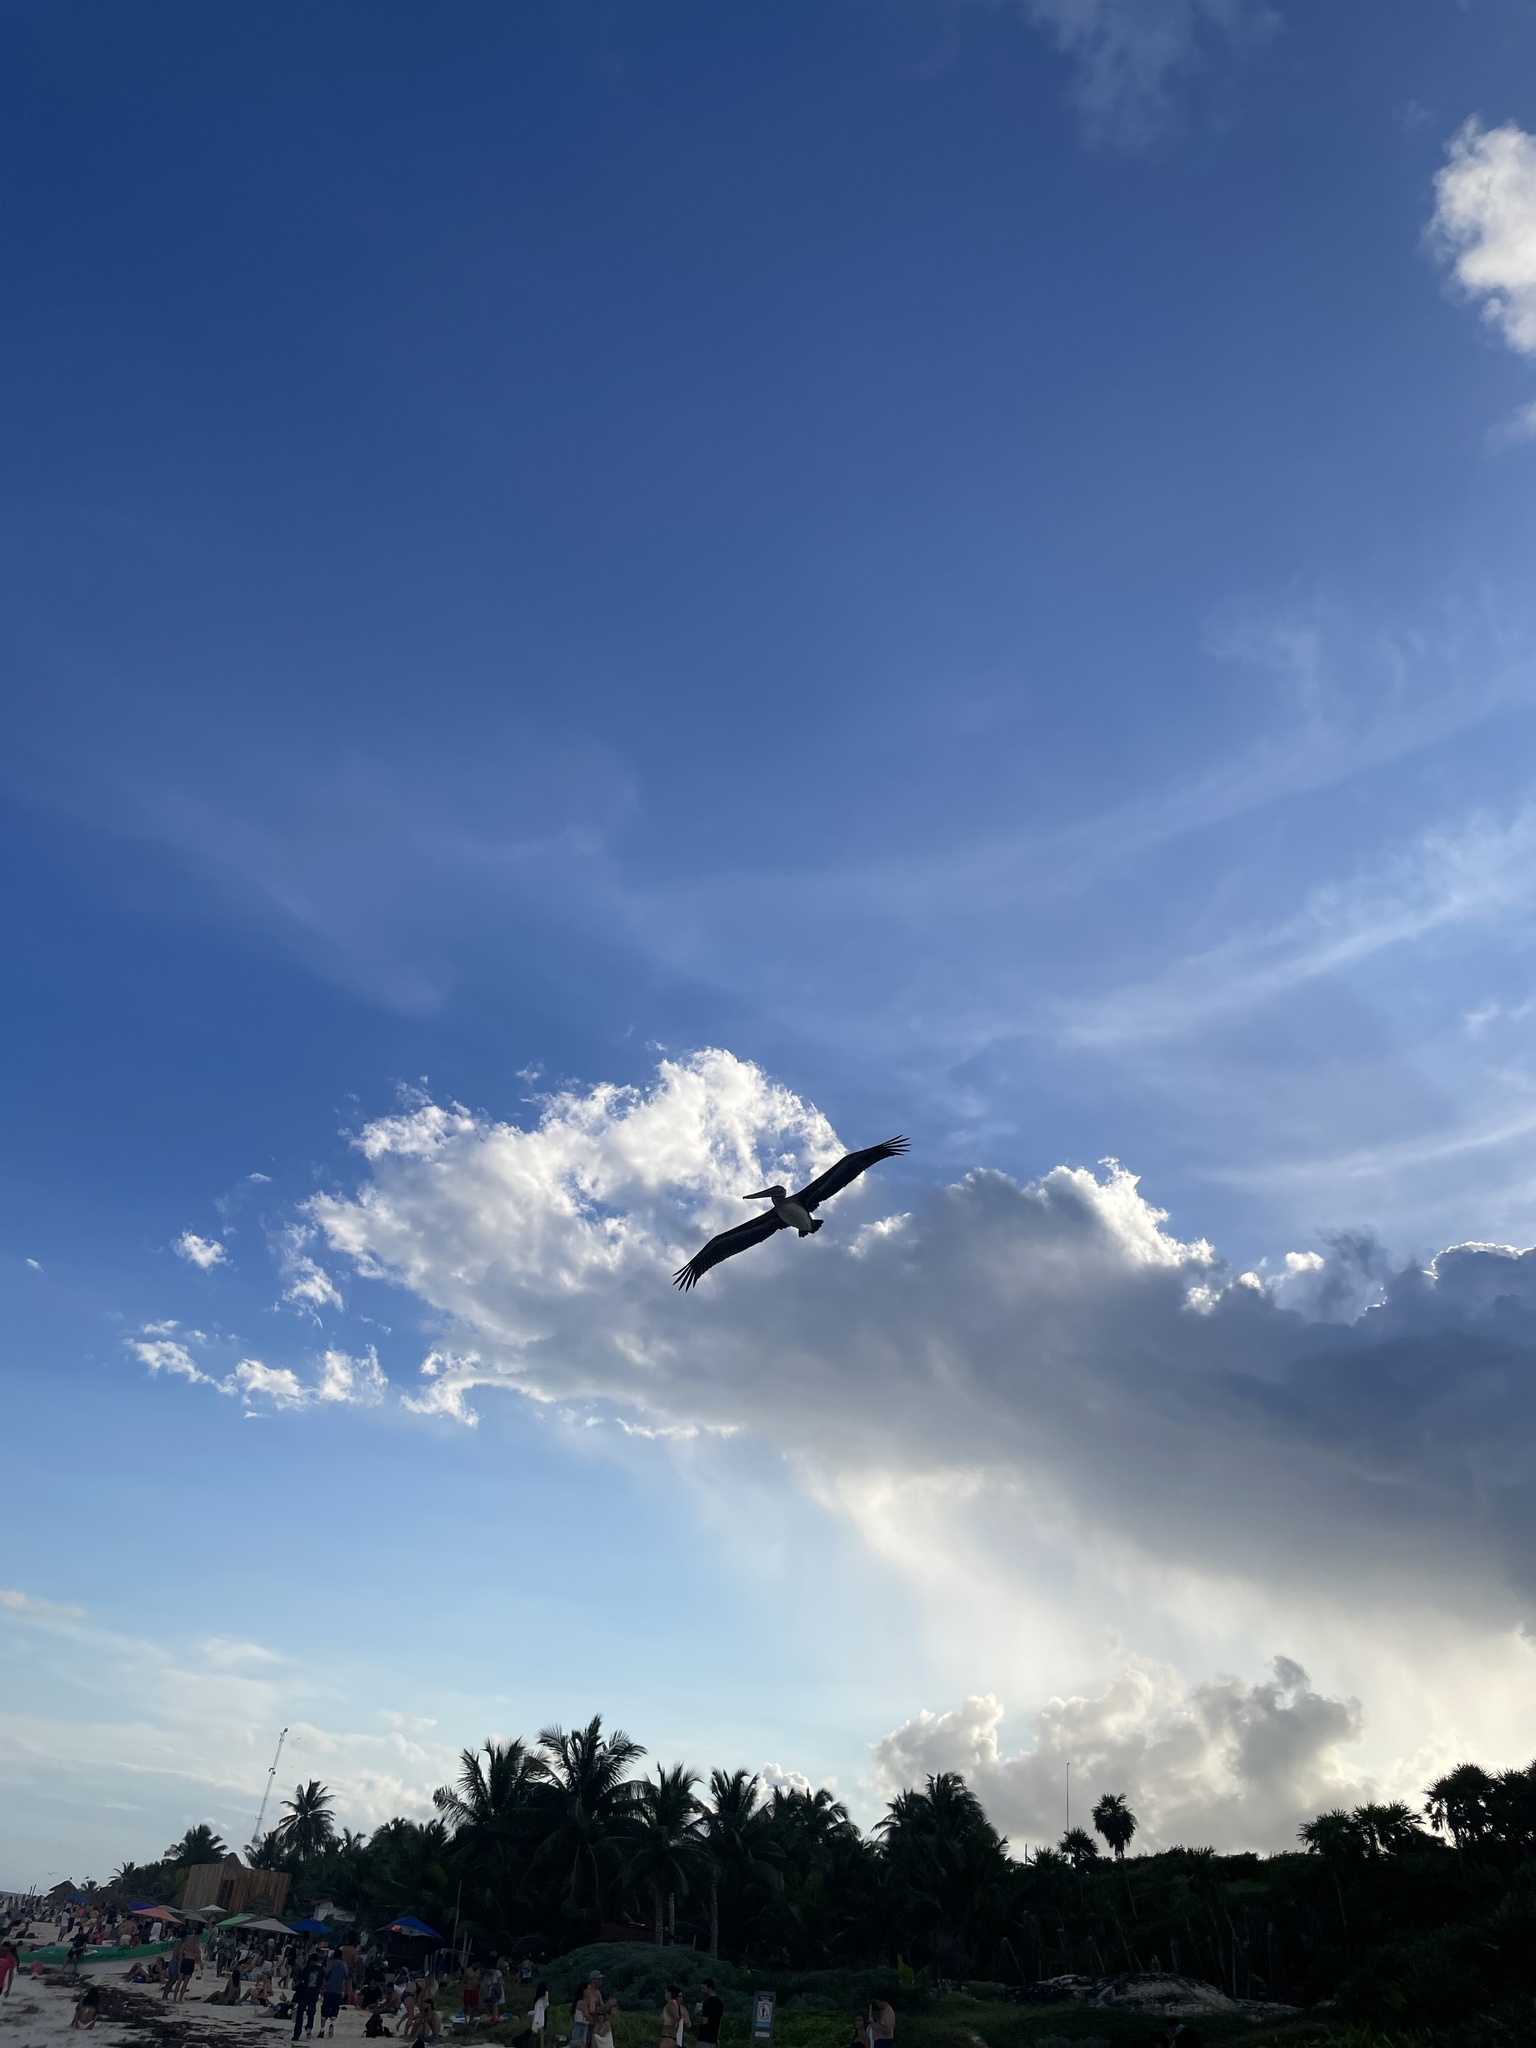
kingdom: Animalia
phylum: Chordata
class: Aves
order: Pelecaniformes
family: Pelecanidae
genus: Pelecanus
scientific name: Pelecanus occidentalis
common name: Brown pelican
